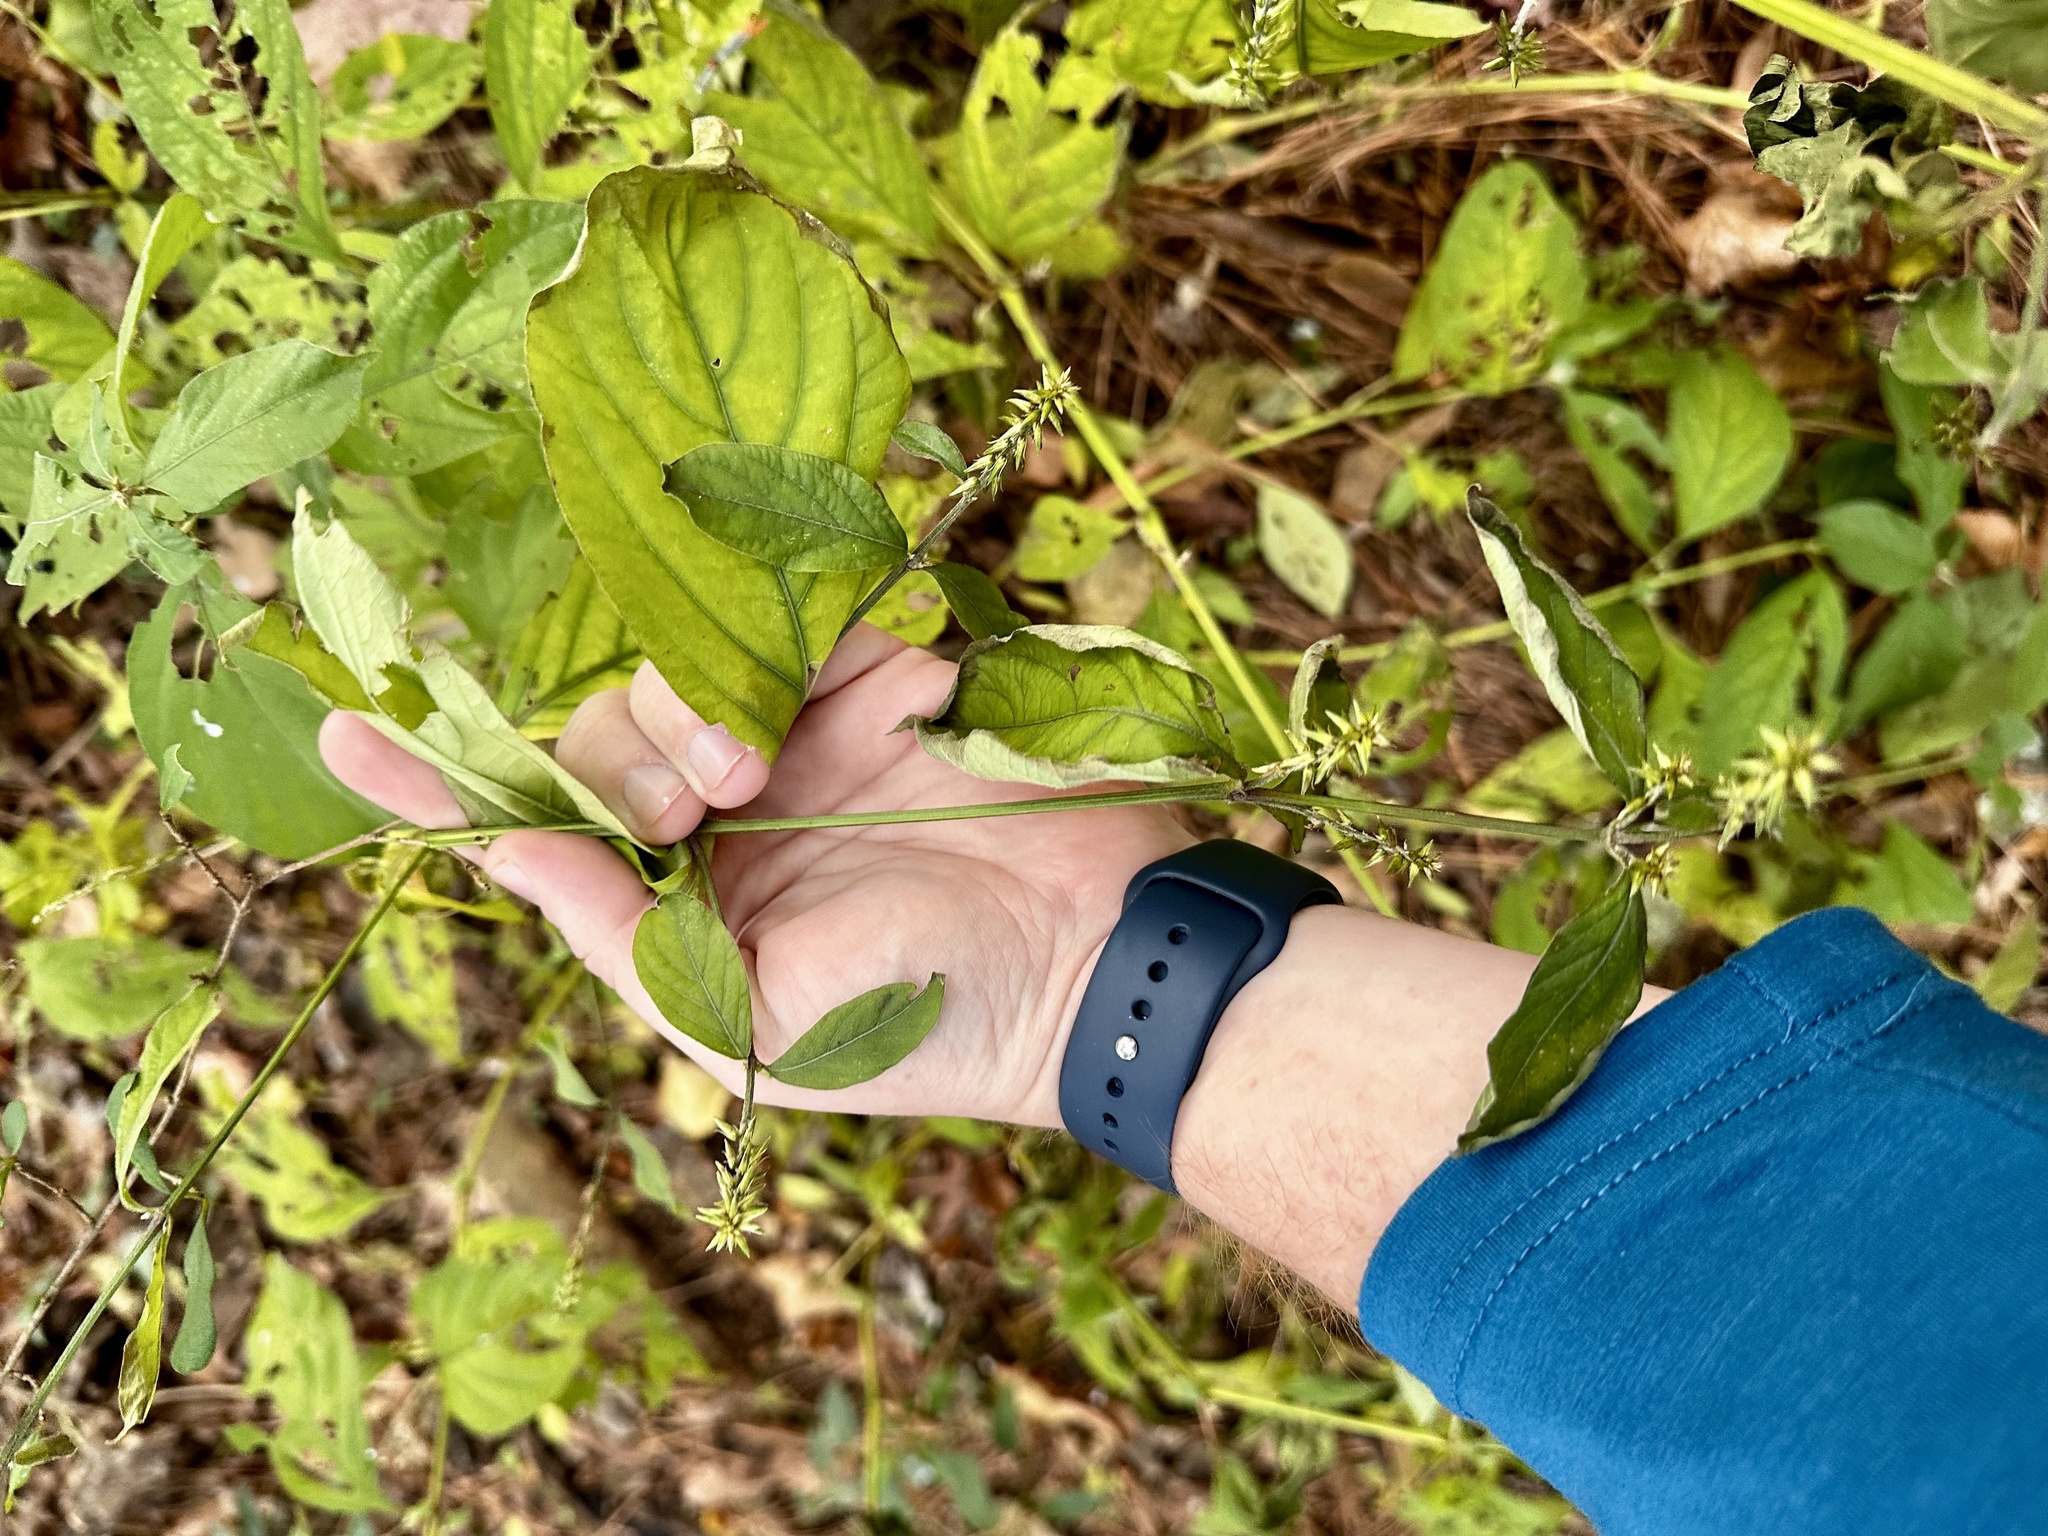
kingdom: Plantae
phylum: Tracheophyta
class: Magnoliopsida
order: Caryophyllales
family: Amaranthaceae
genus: Achyranthes
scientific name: Achyranthes bidentata
